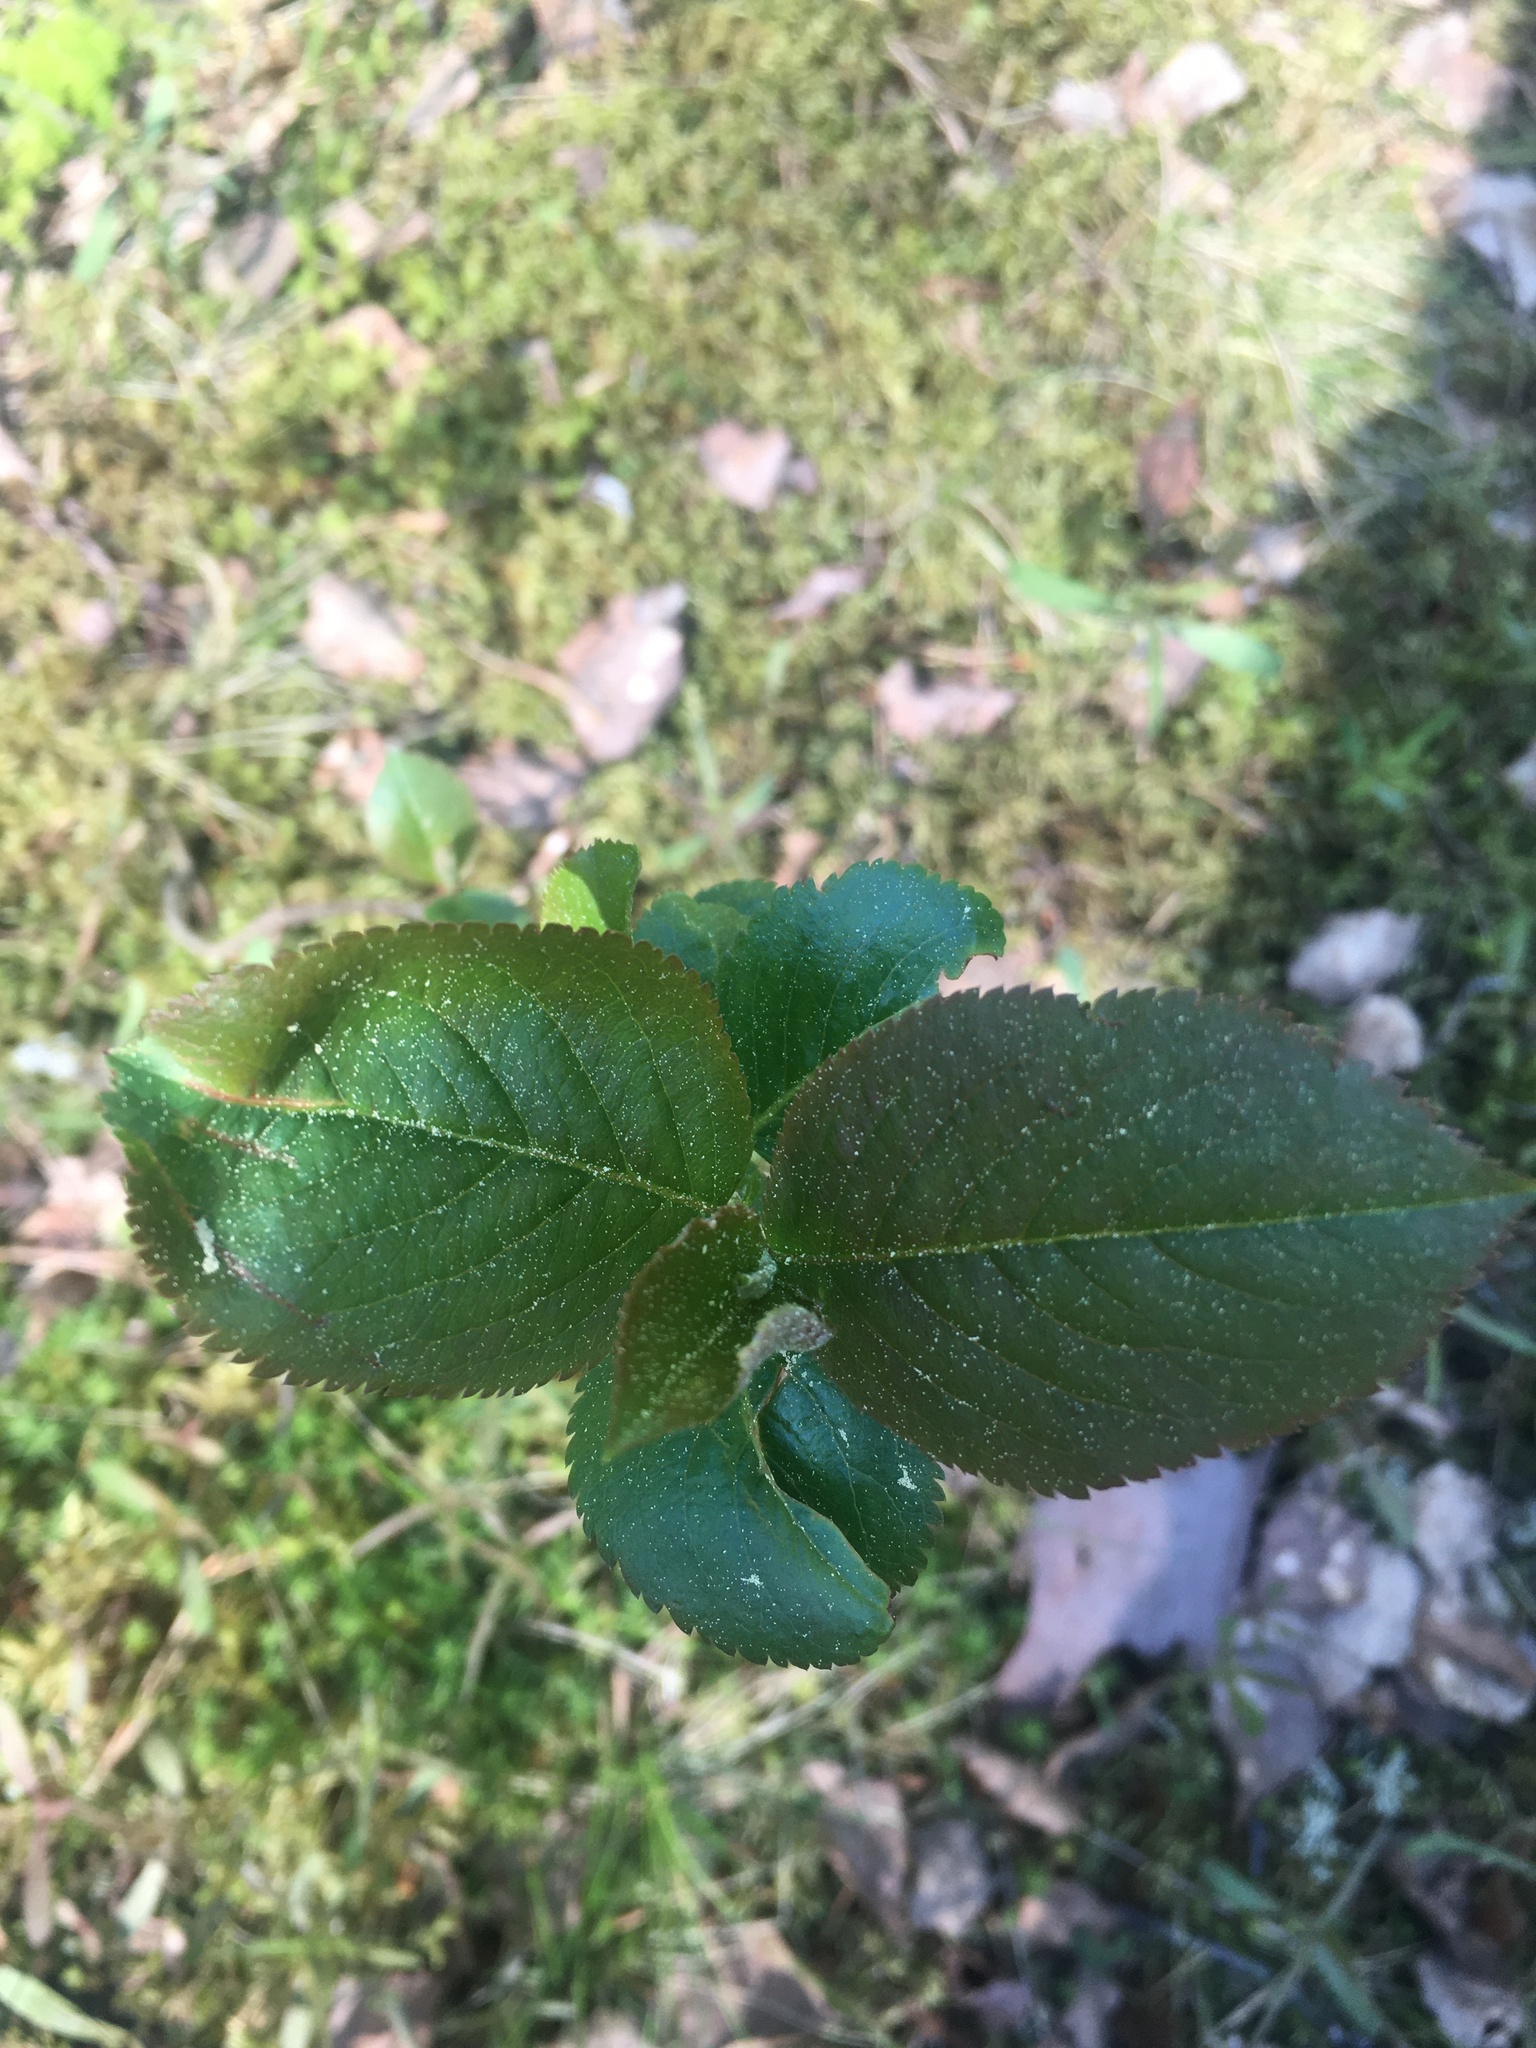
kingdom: Plantae
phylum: Tracheophyta
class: Magnoliopsida
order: Rosales
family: Rosaceae
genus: Sorbaronia
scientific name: Sorbaronia arsenii
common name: Arsène's mountain-ash
